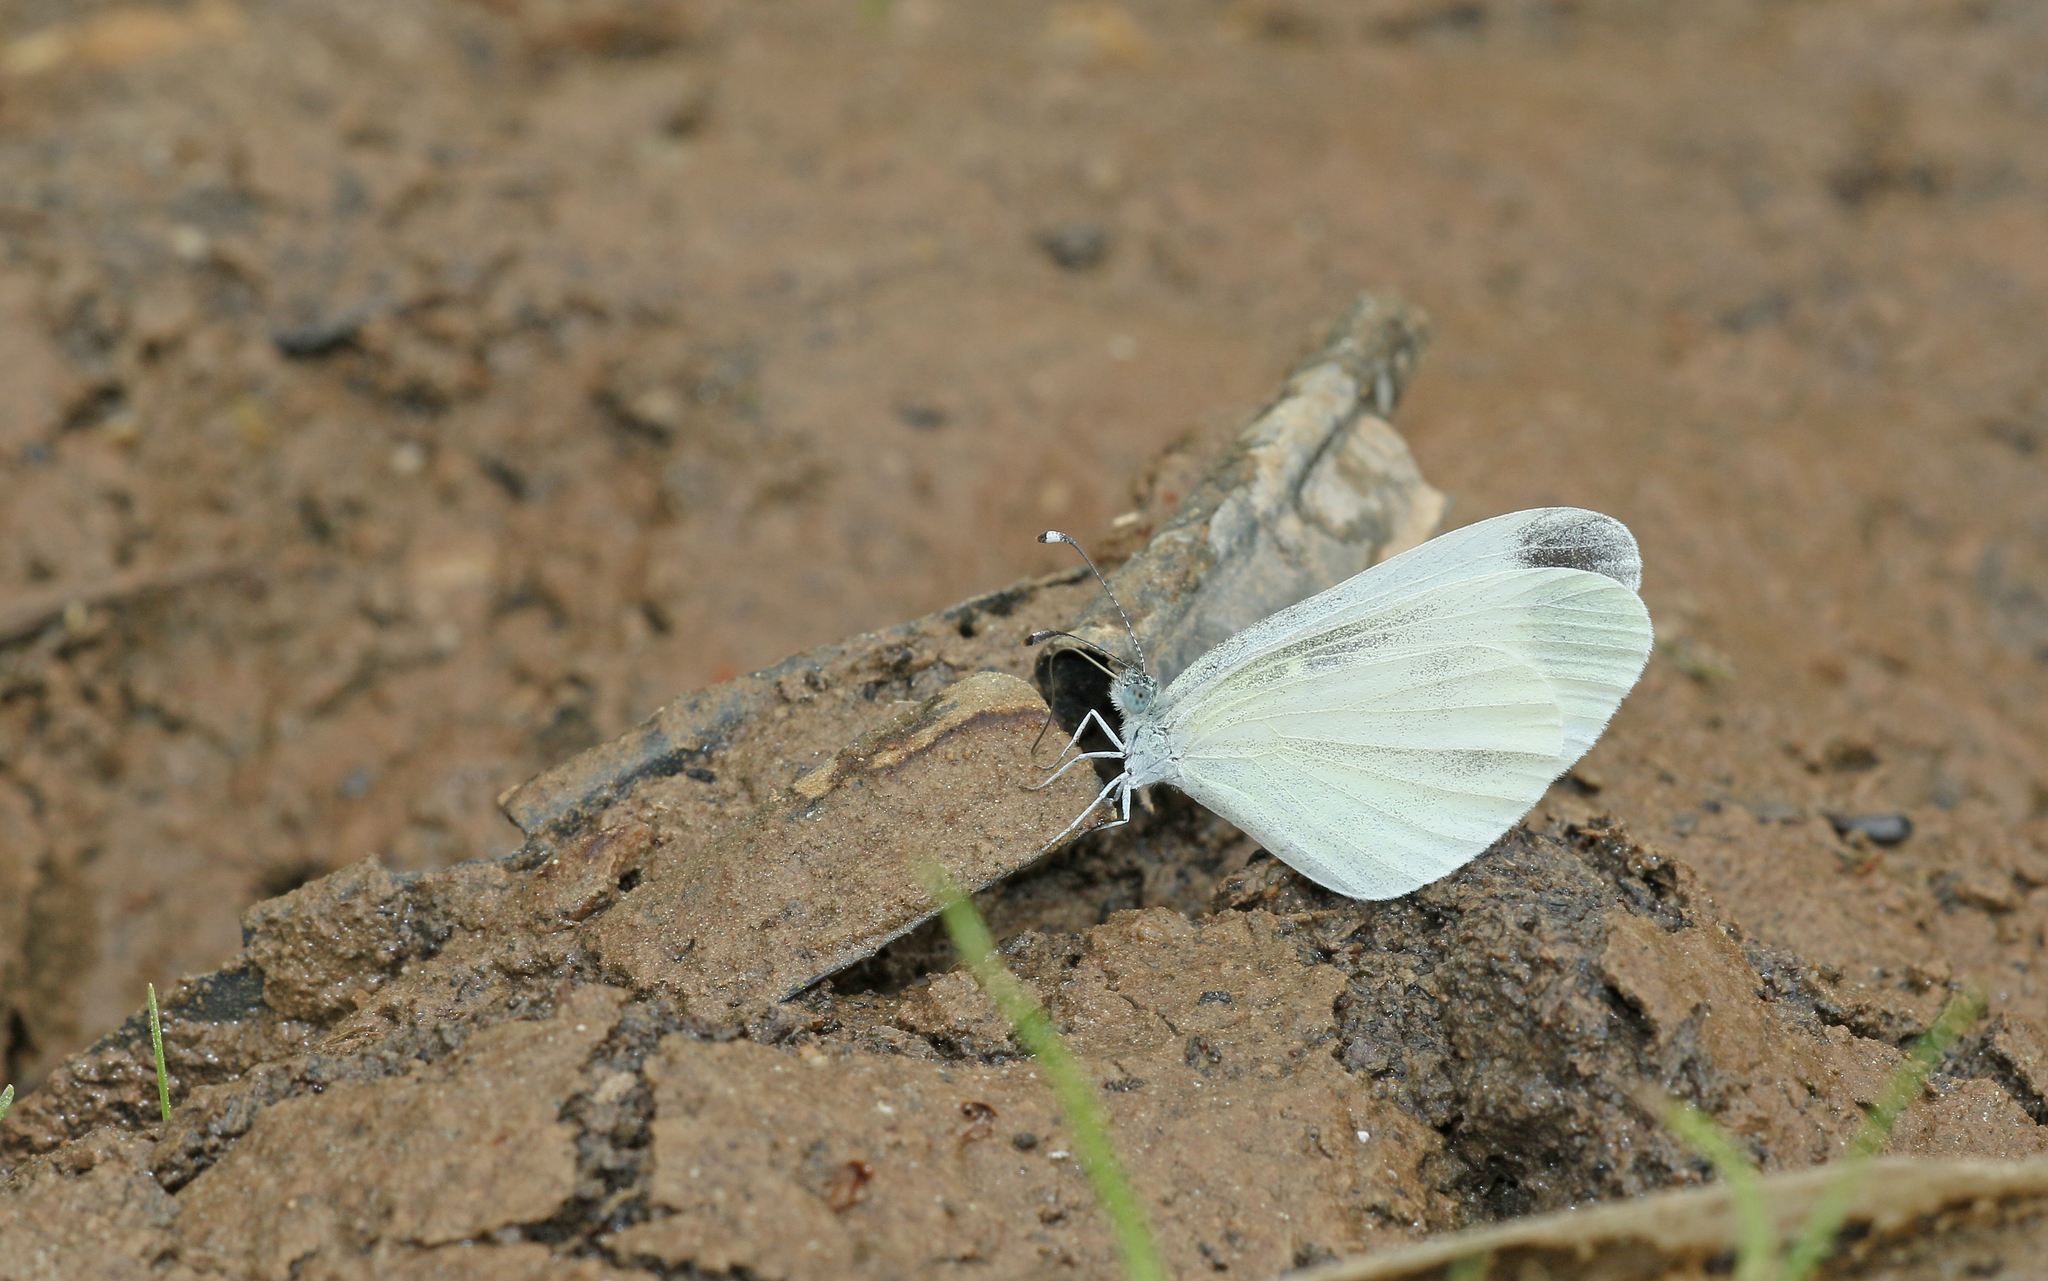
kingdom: Animalia
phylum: Arthropoda
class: Insecta
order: Lepidoptera
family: Pieridae
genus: Leptidea
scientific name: Leptidea sinapis
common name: Wood white
